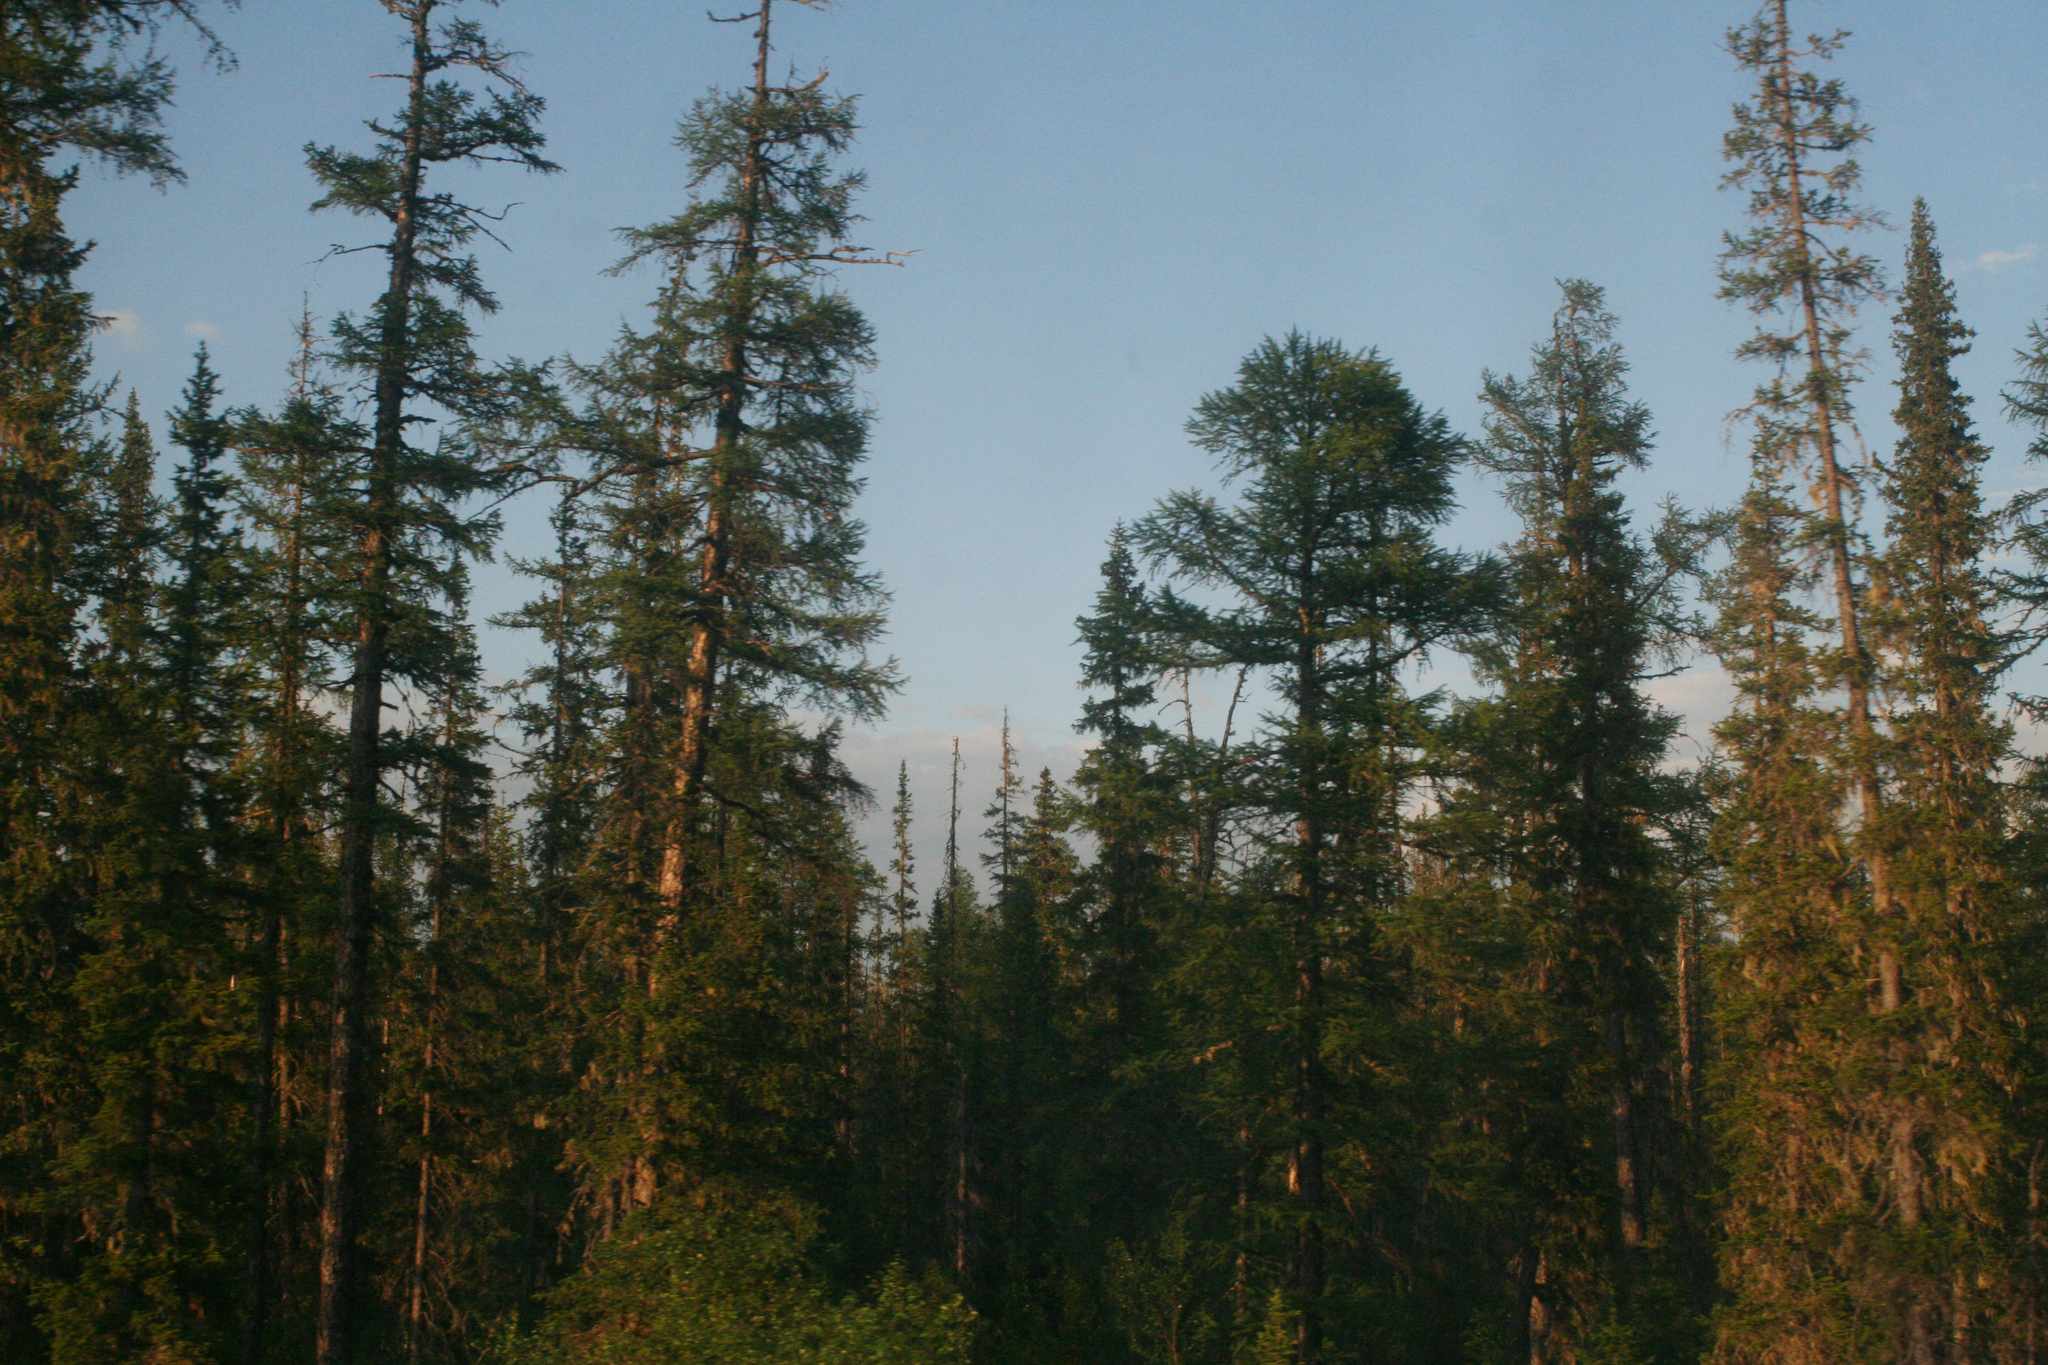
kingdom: Plantae
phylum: Tracheophyta
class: Pinopsida
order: Pinales
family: Pinaceae
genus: Larix
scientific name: Larix gmelinii
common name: Dahurian larch
